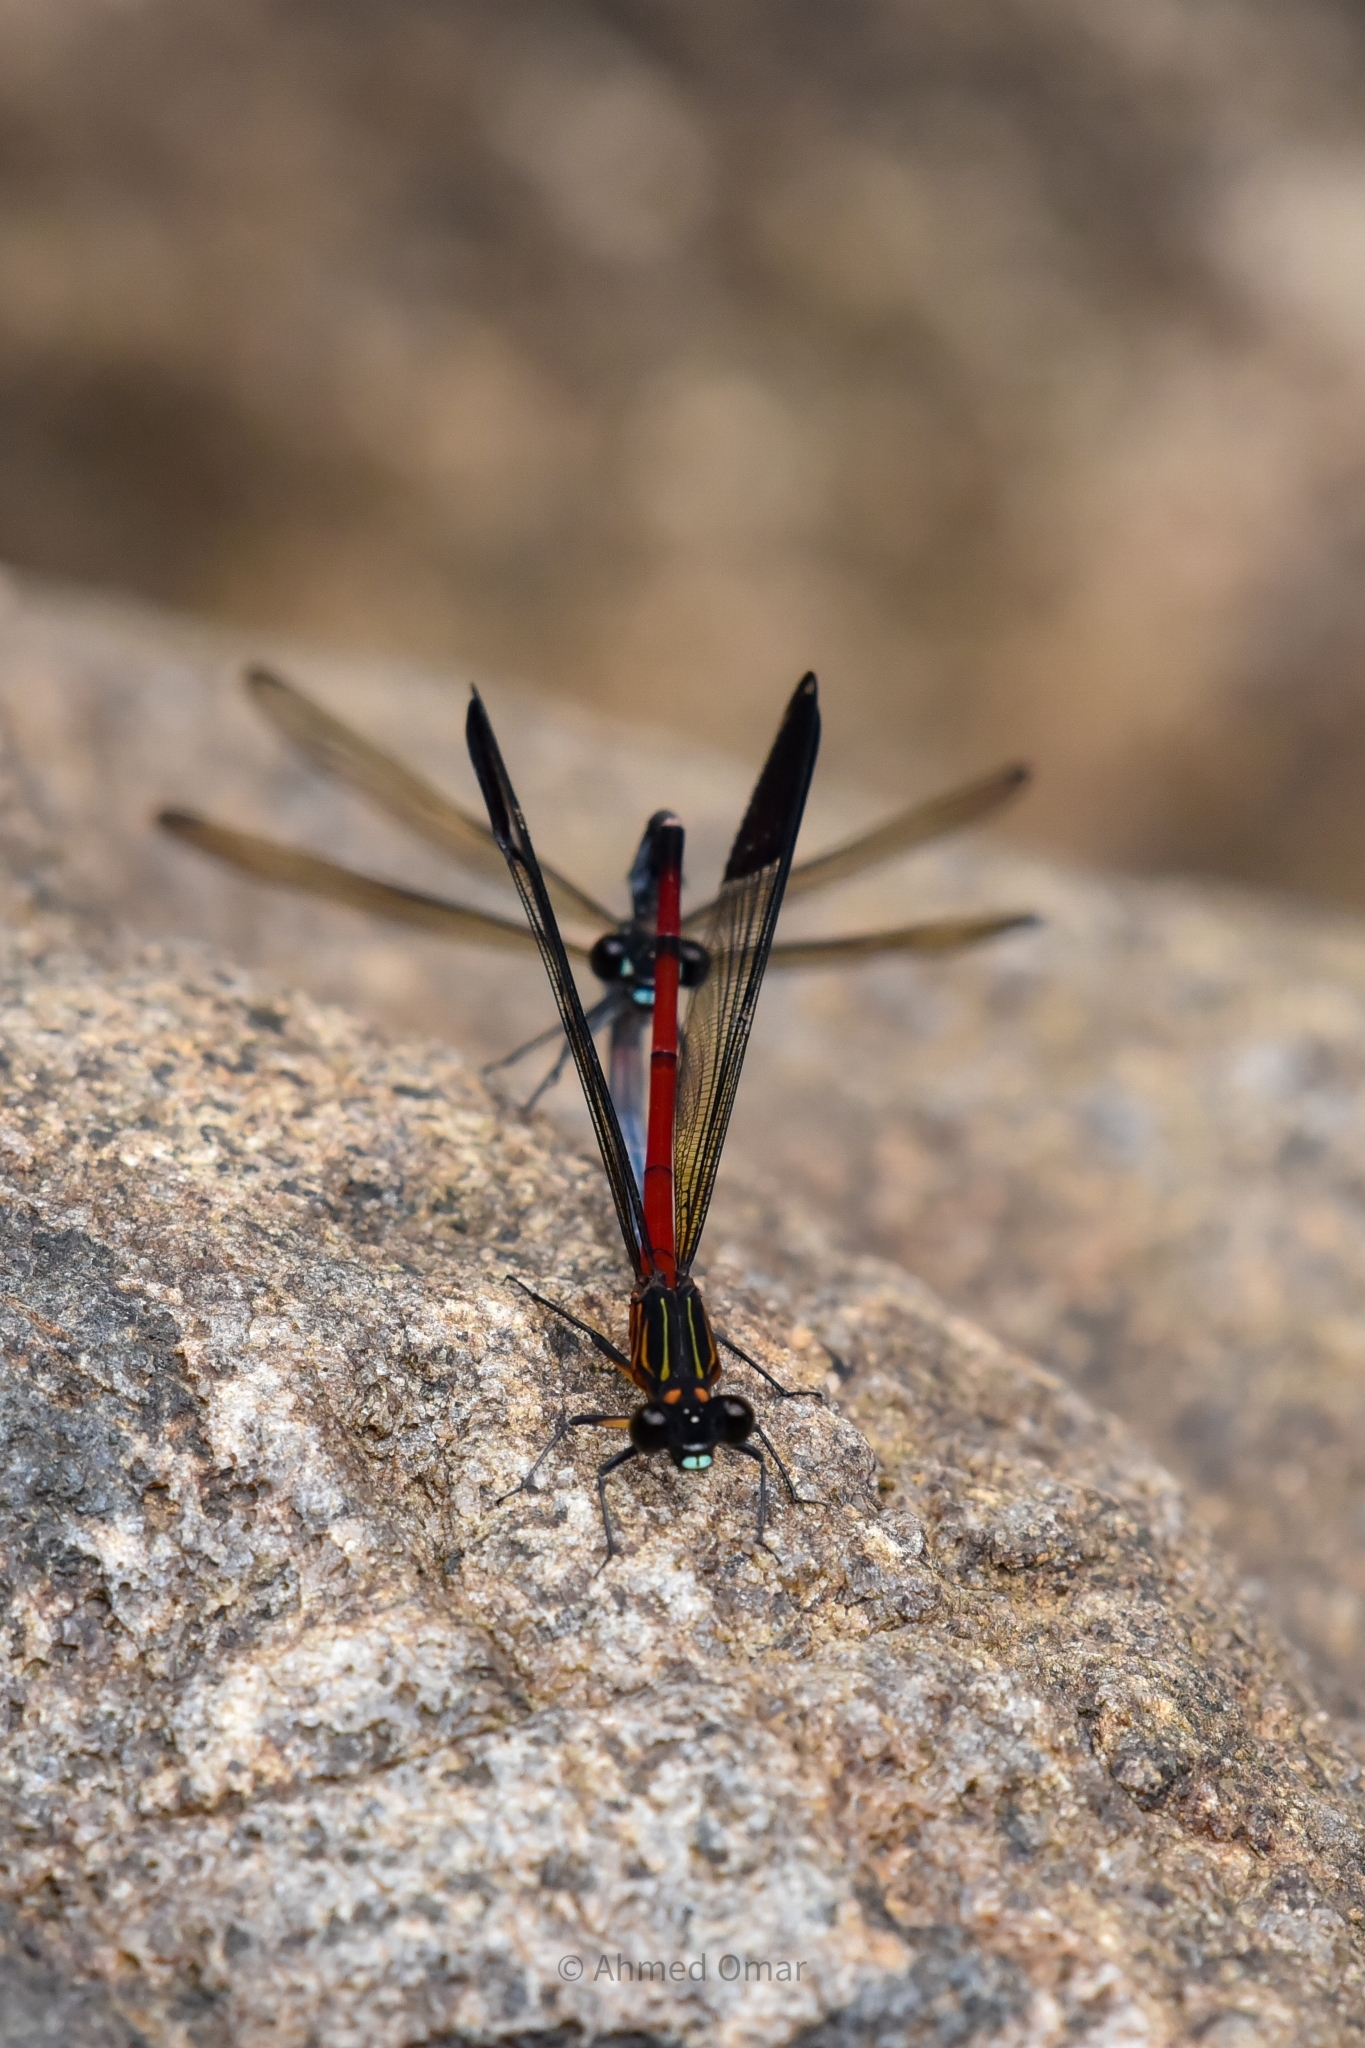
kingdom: Animalia
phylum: Arthropoda
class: Insecta
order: Odonata
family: Euphaeidae
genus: Euphaea
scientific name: Euphaea dispar
